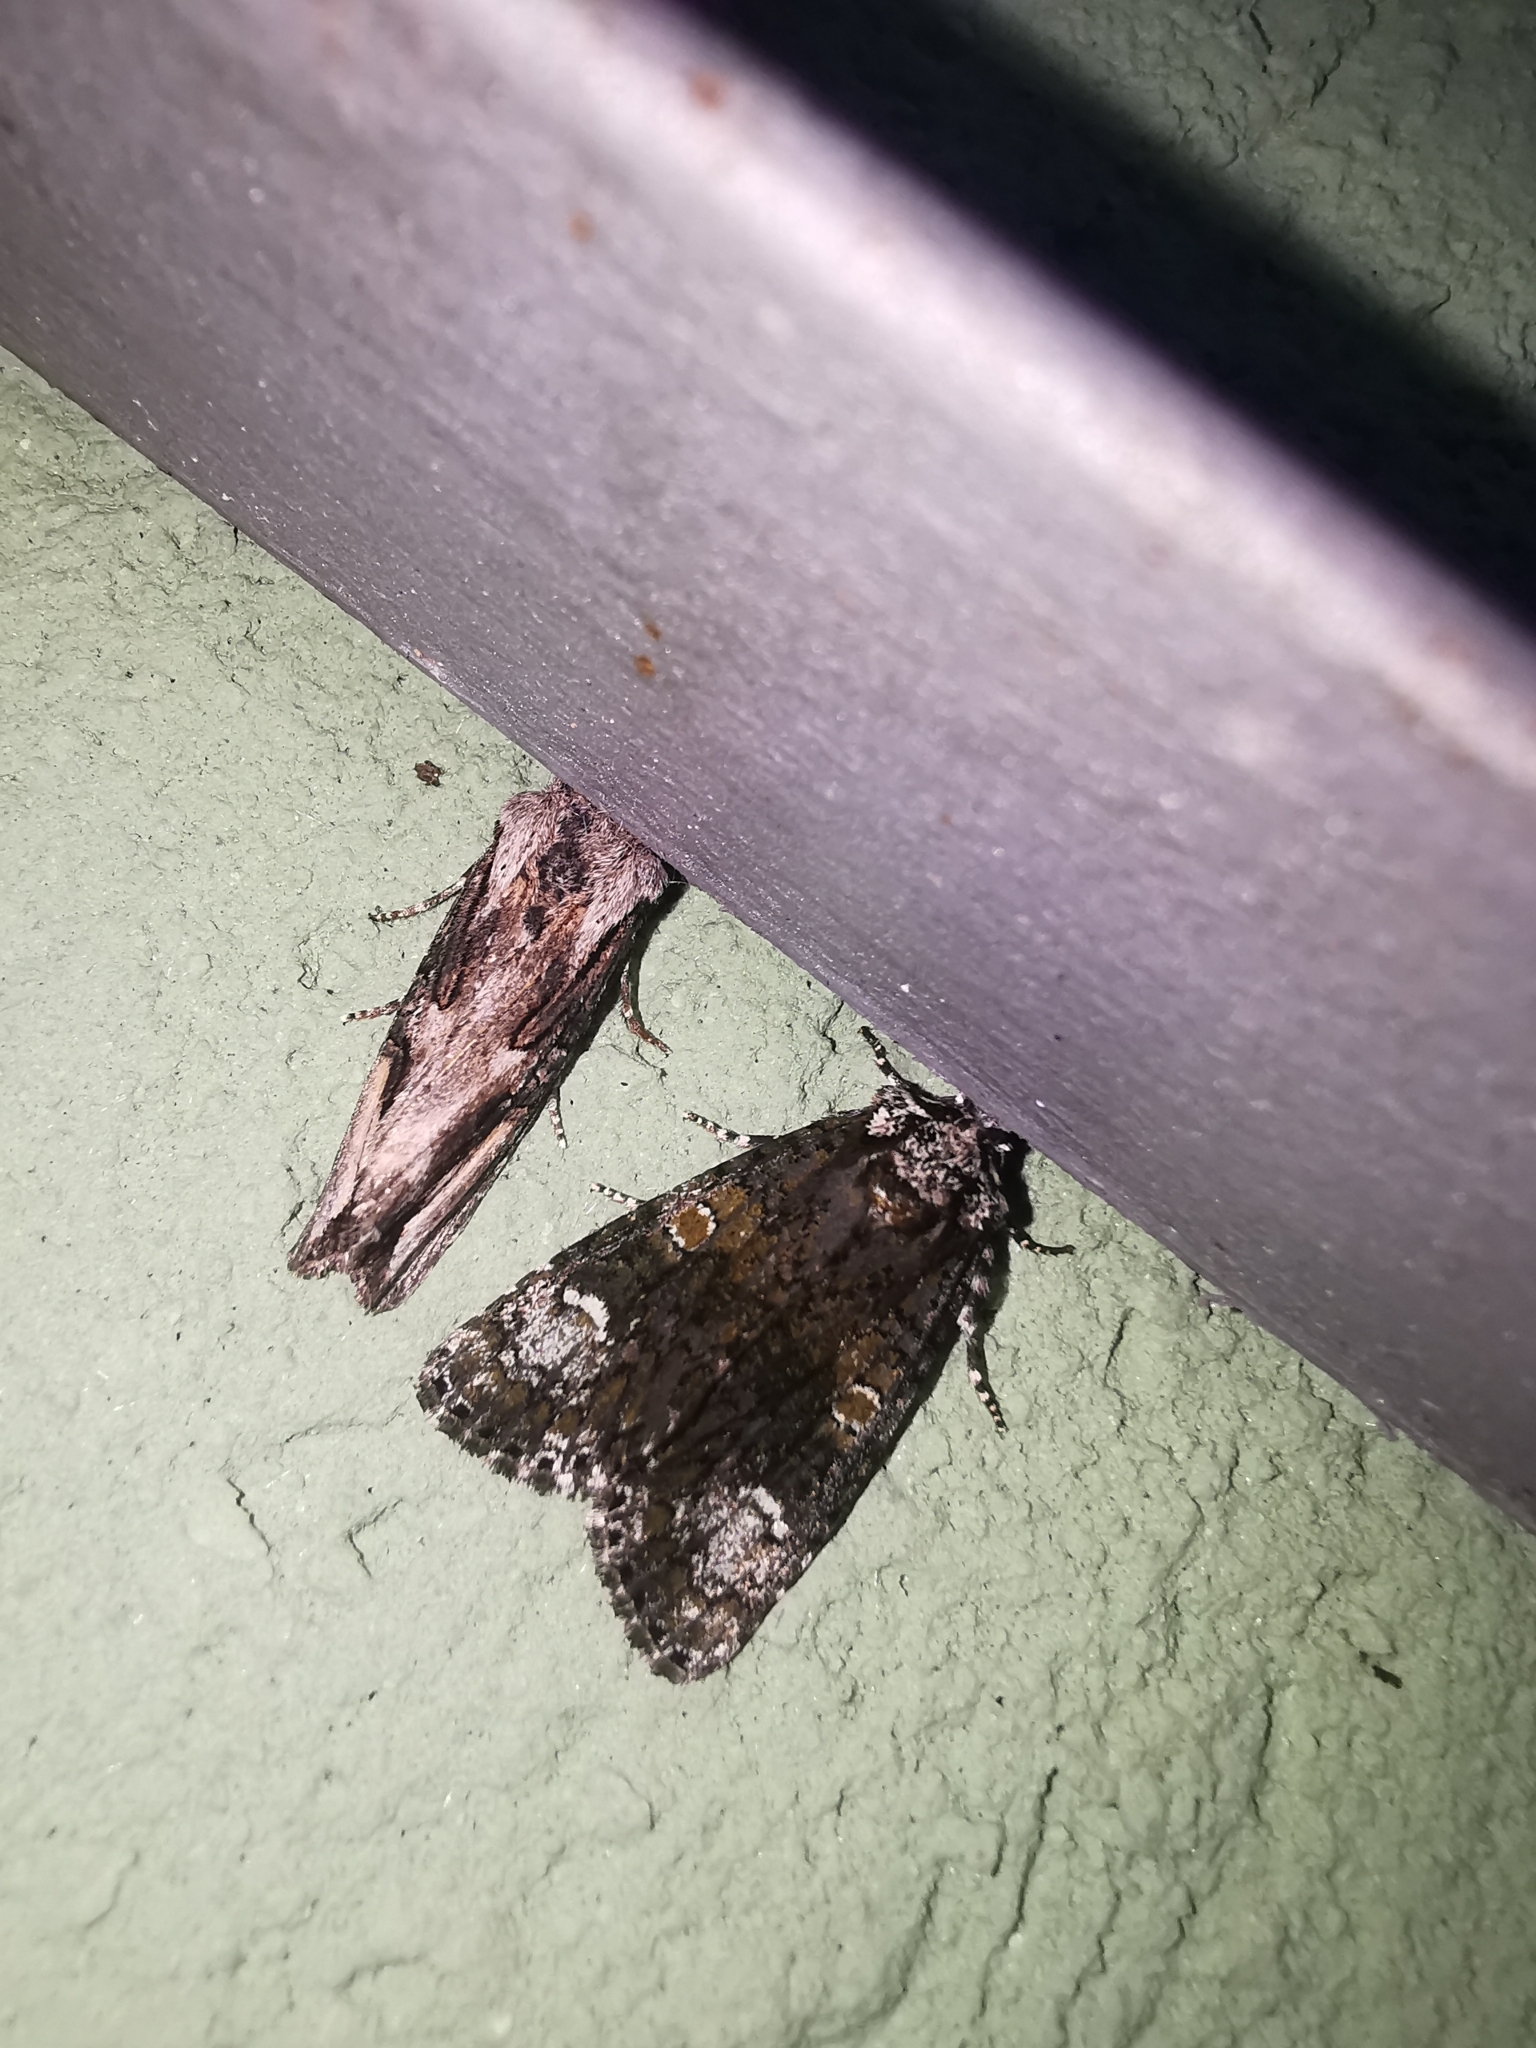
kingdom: Animalia
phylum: Arthropoda
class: Insecta
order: Lepidoptera
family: Noctuidae
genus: Craniophora
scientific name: Craniophora ligustri
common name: Coronet
